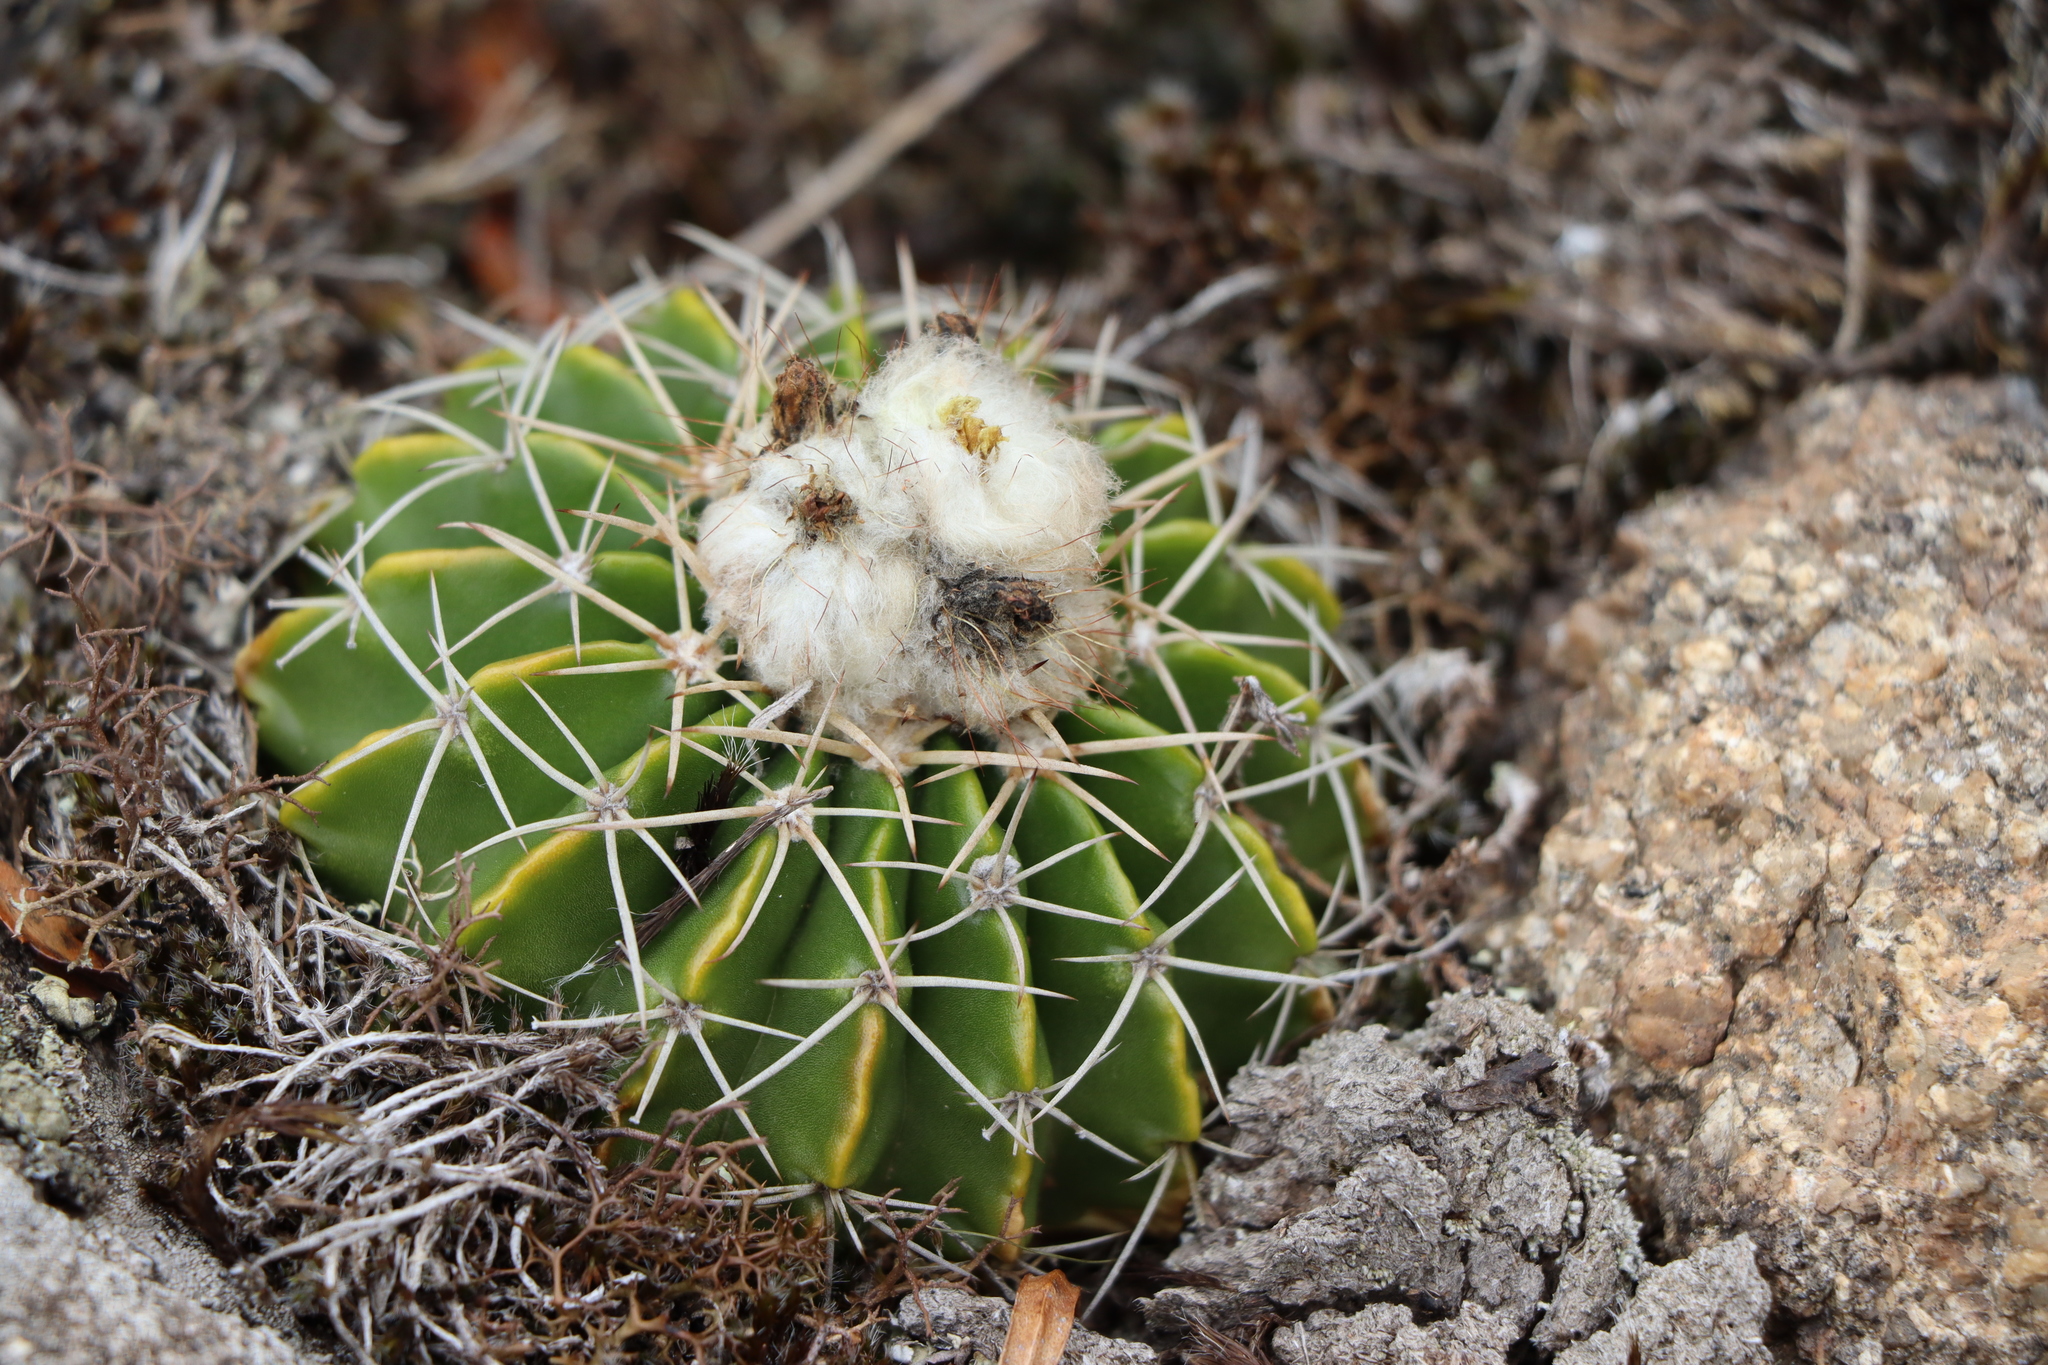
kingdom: Plantae
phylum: Tracheophyta
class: Magnoliopsida
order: Caryophyllales
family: Cactaceae
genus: Parodia
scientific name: Parodia erinacea
